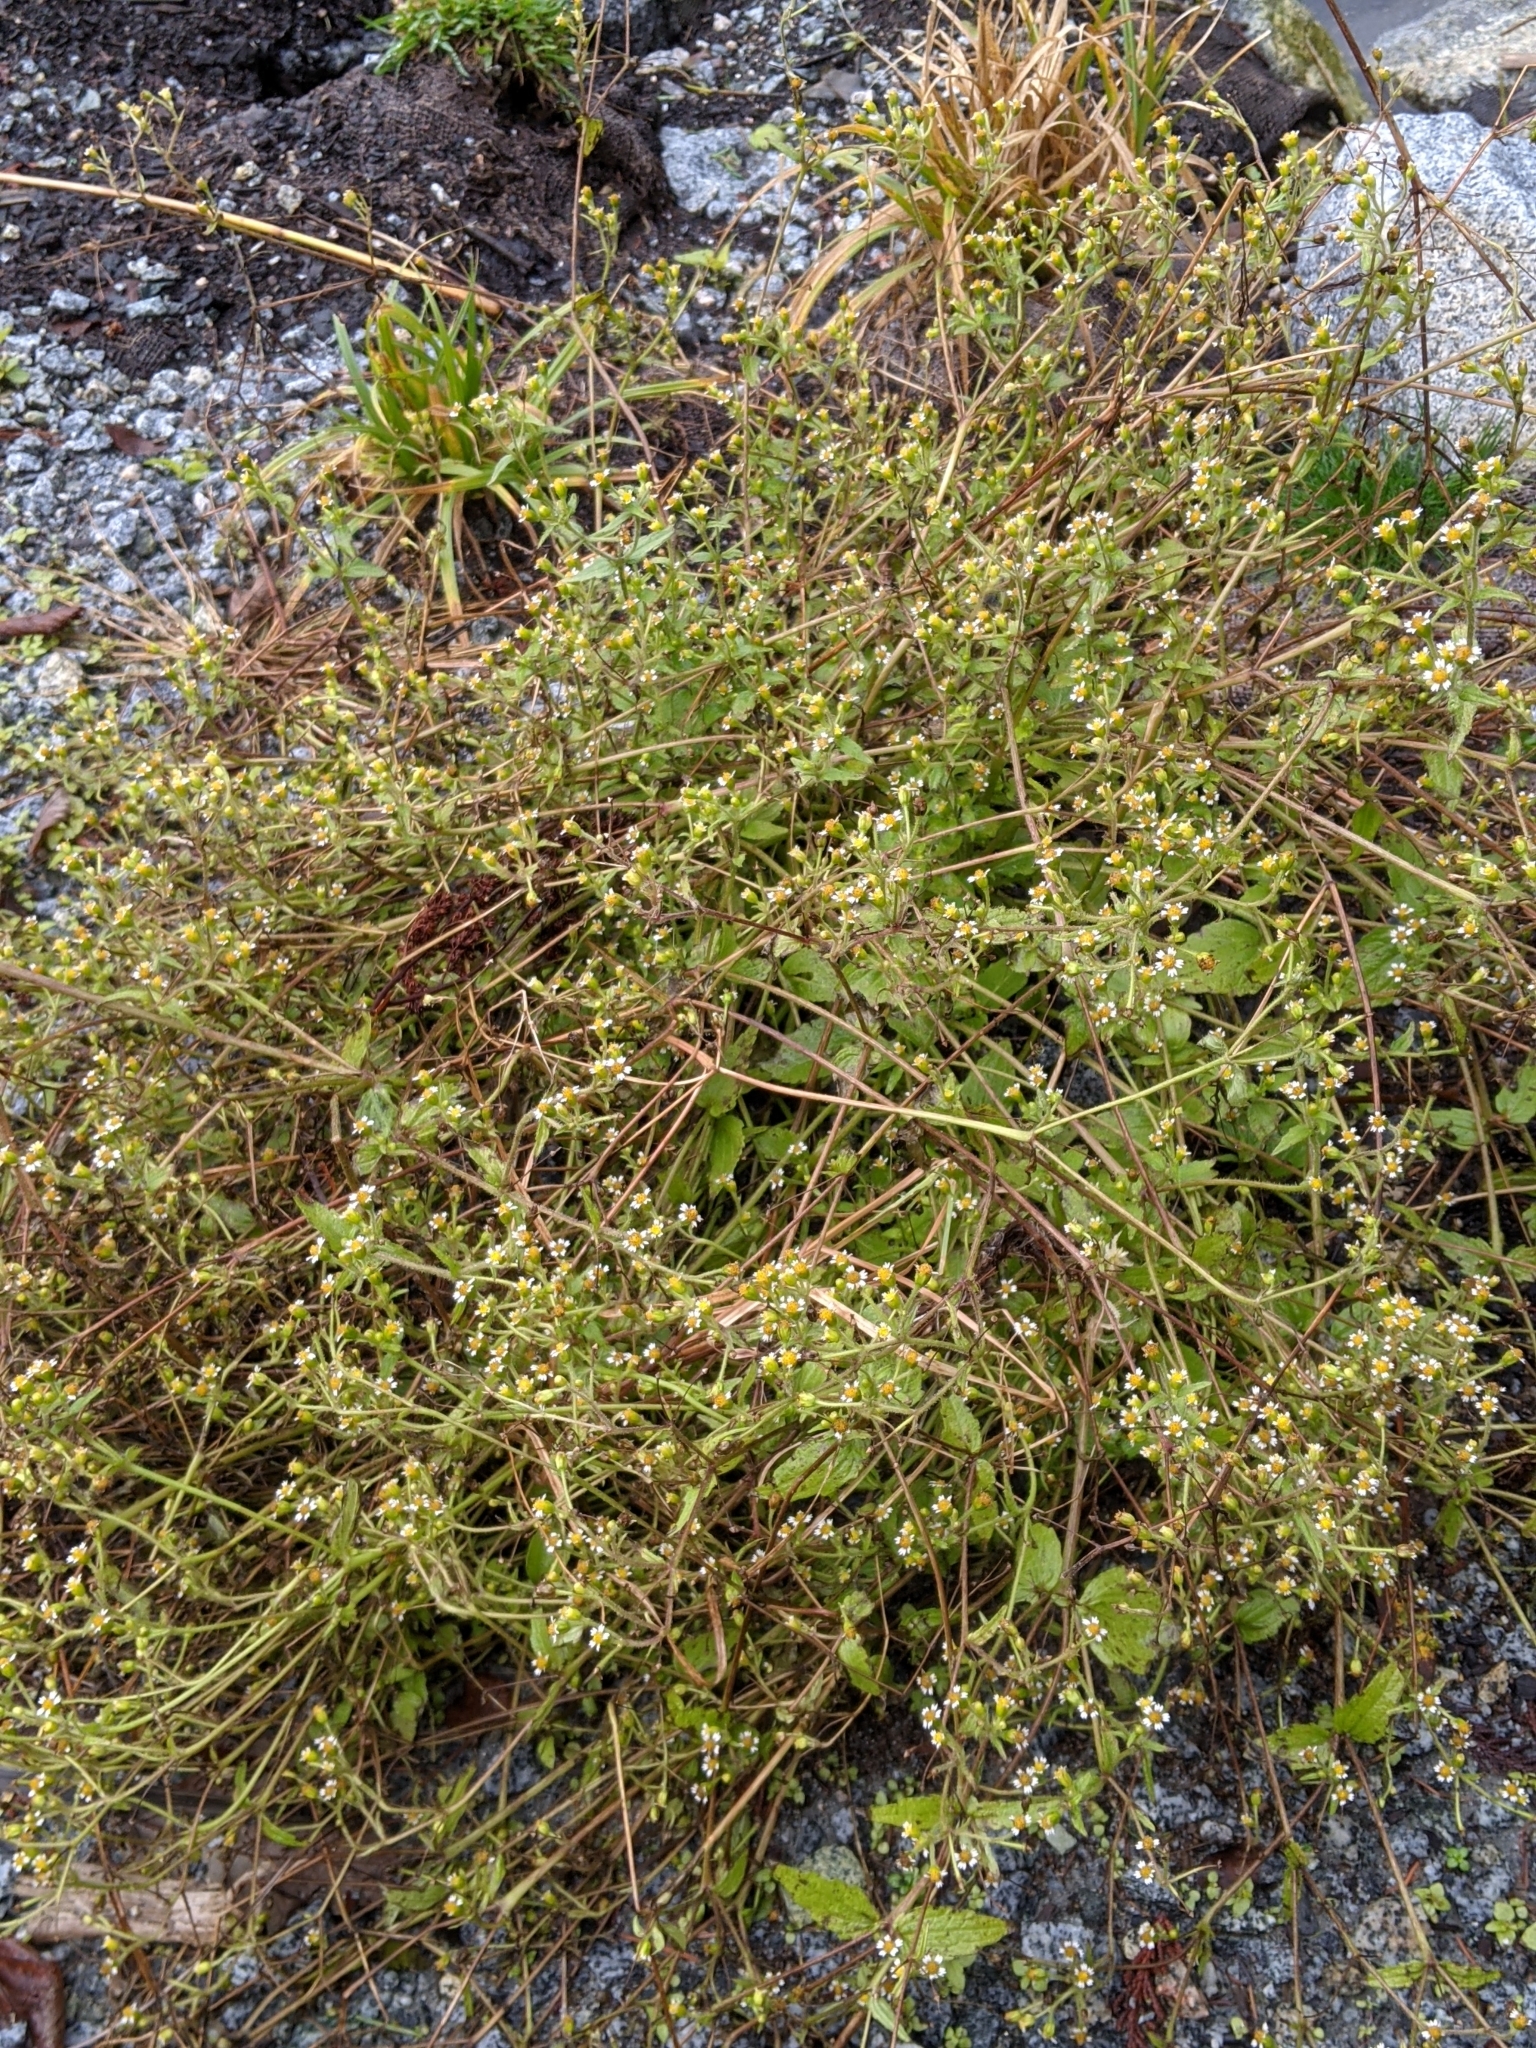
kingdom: Plantae
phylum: Tracheophyta
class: Magnoliopsida
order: Asterales
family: Asteraceae
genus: Galinsoga
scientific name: Galinsoga quadriradiata
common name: Shaggy soldier
